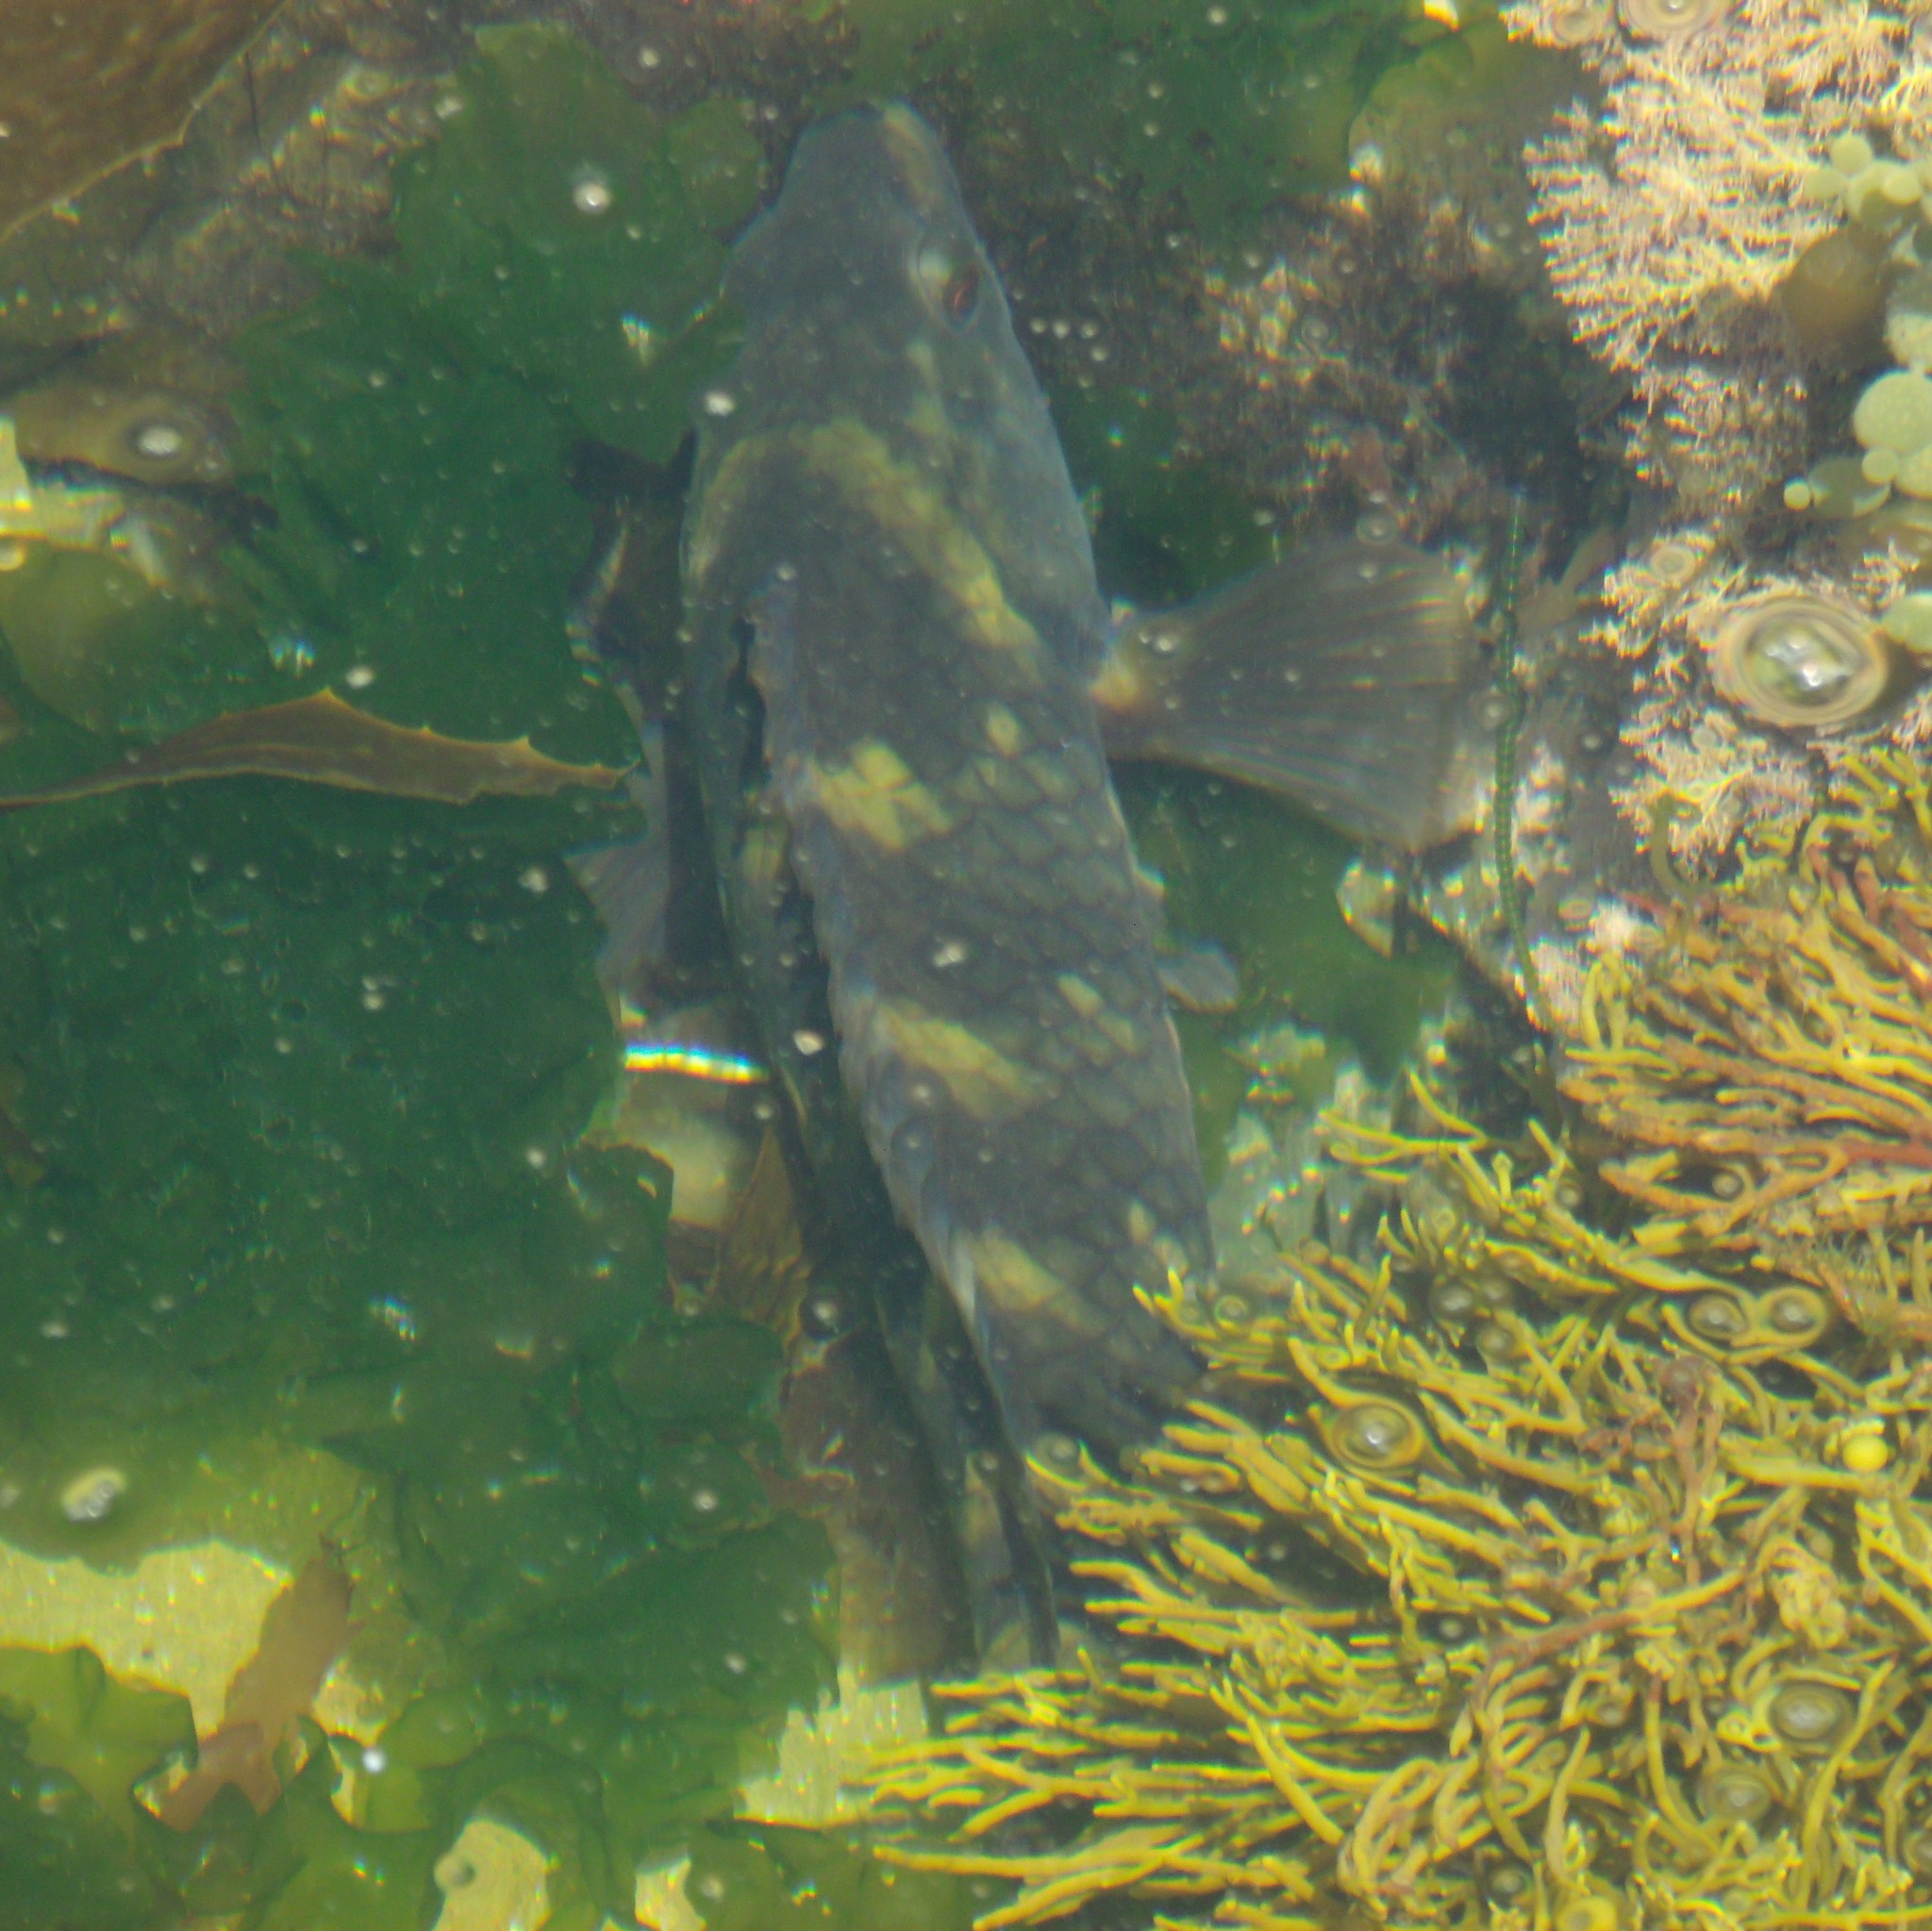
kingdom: Animalia
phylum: Chordata
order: Perciformes
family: Labridae
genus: Notolabrus
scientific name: Notolabrus fucicola
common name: Banded parrotfish
